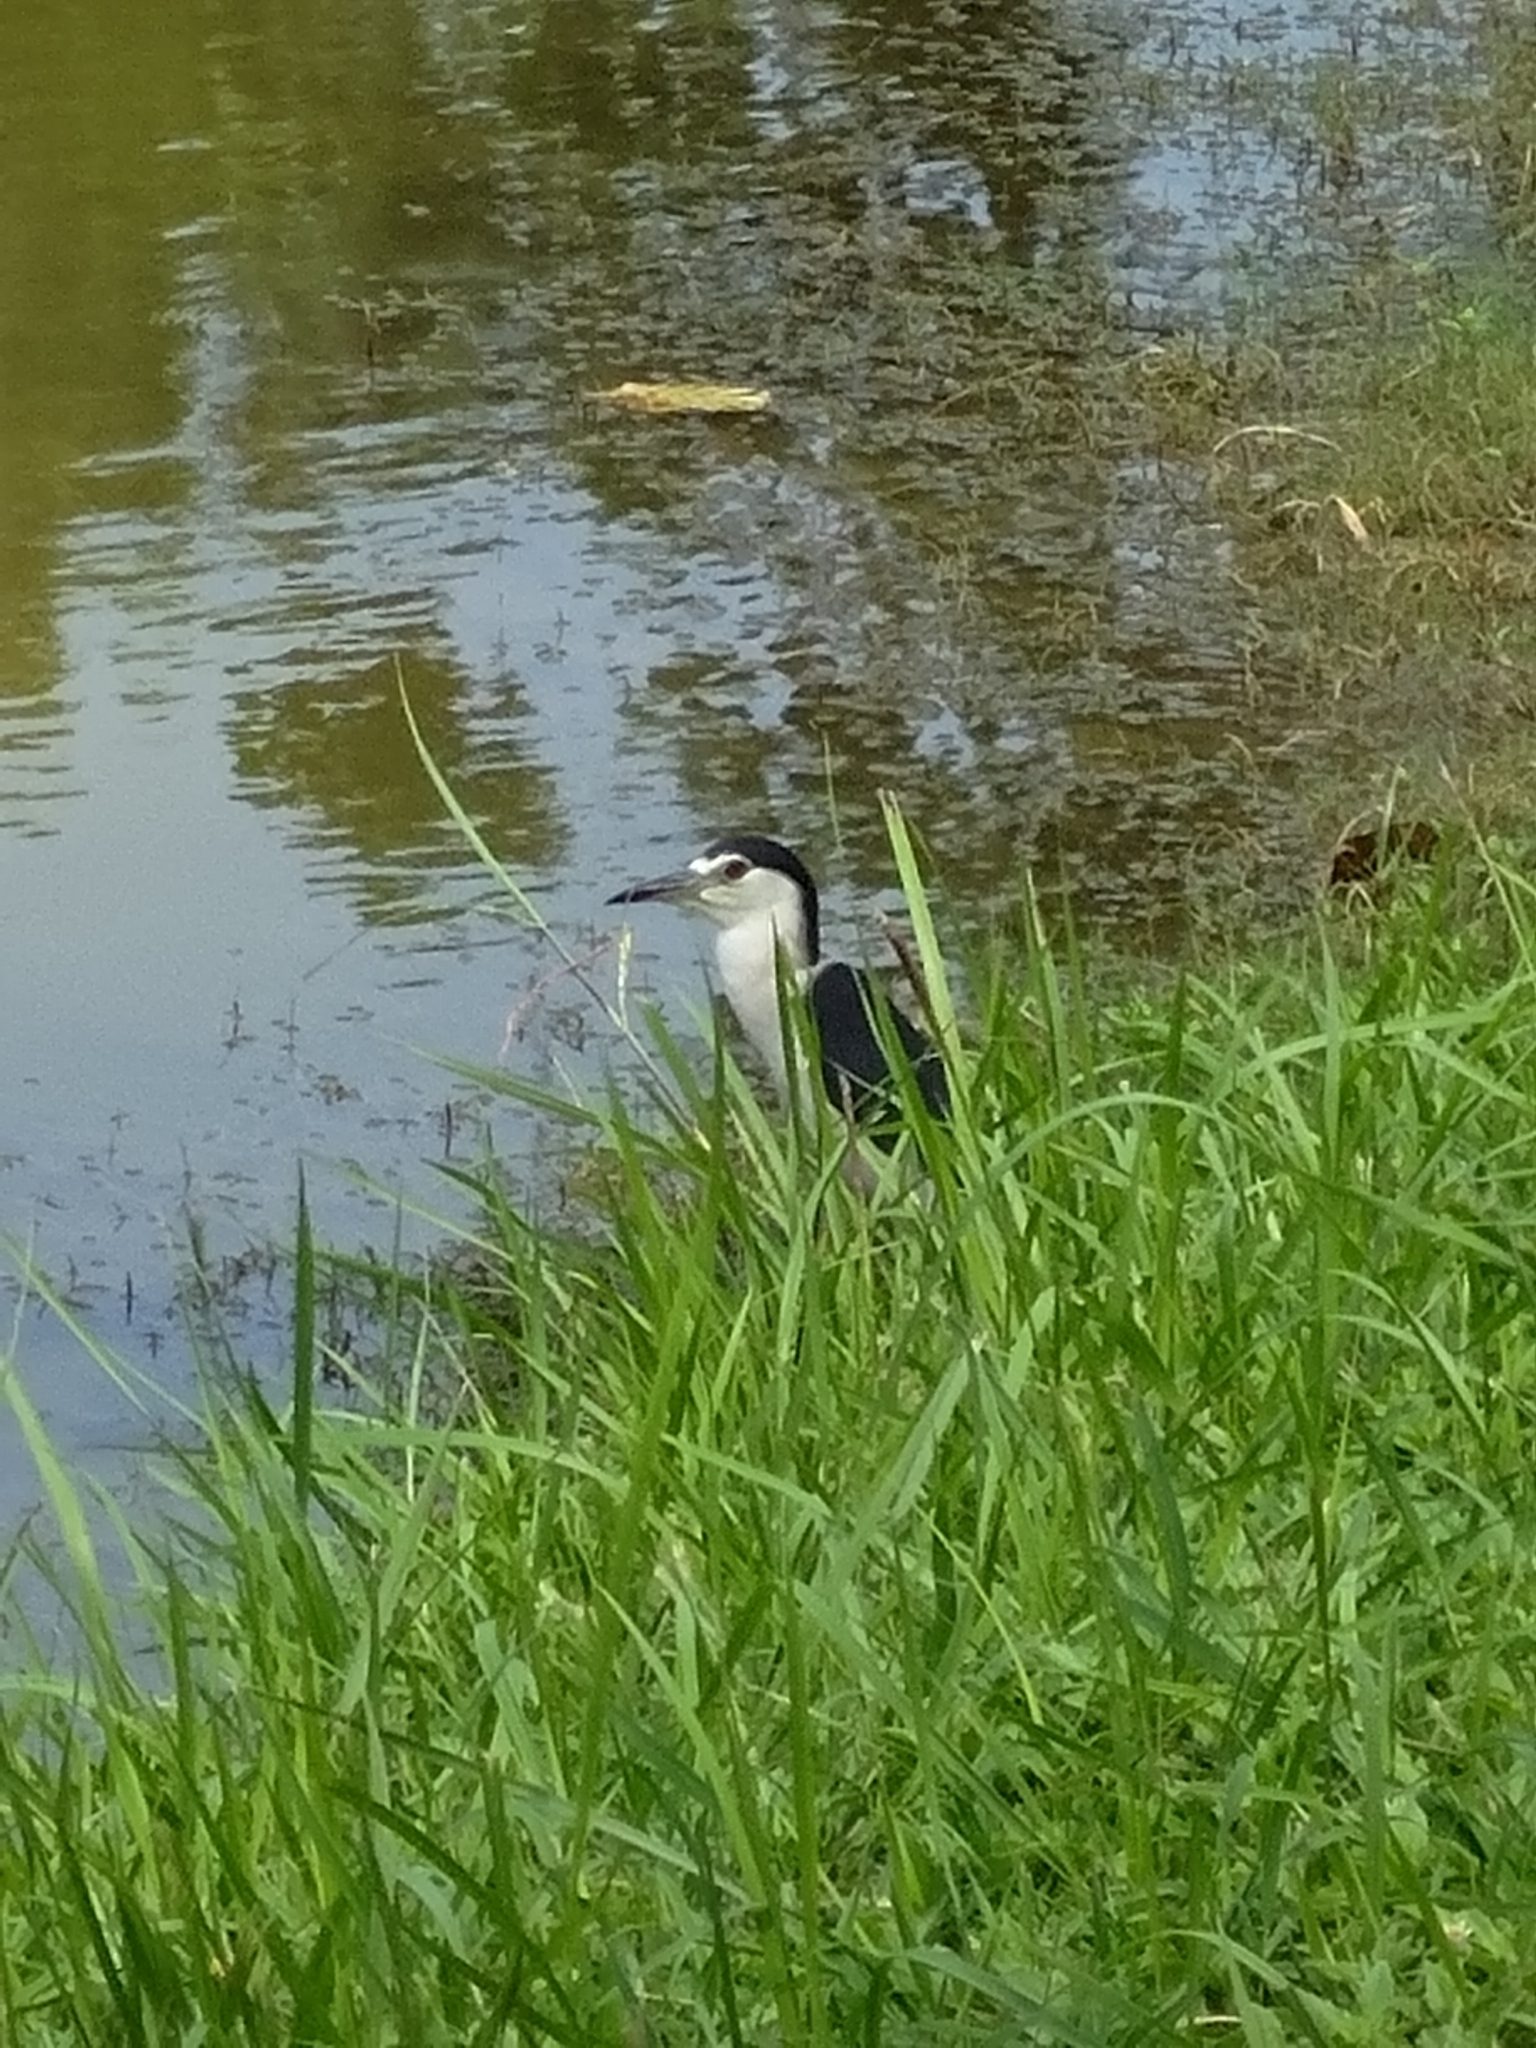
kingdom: Animalia
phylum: Chordata
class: Aves
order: Pelecaniformes
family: Ardeidae
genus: Nycticorax
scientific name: Nycticorax nycticorax
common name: Black-crowned night heron
